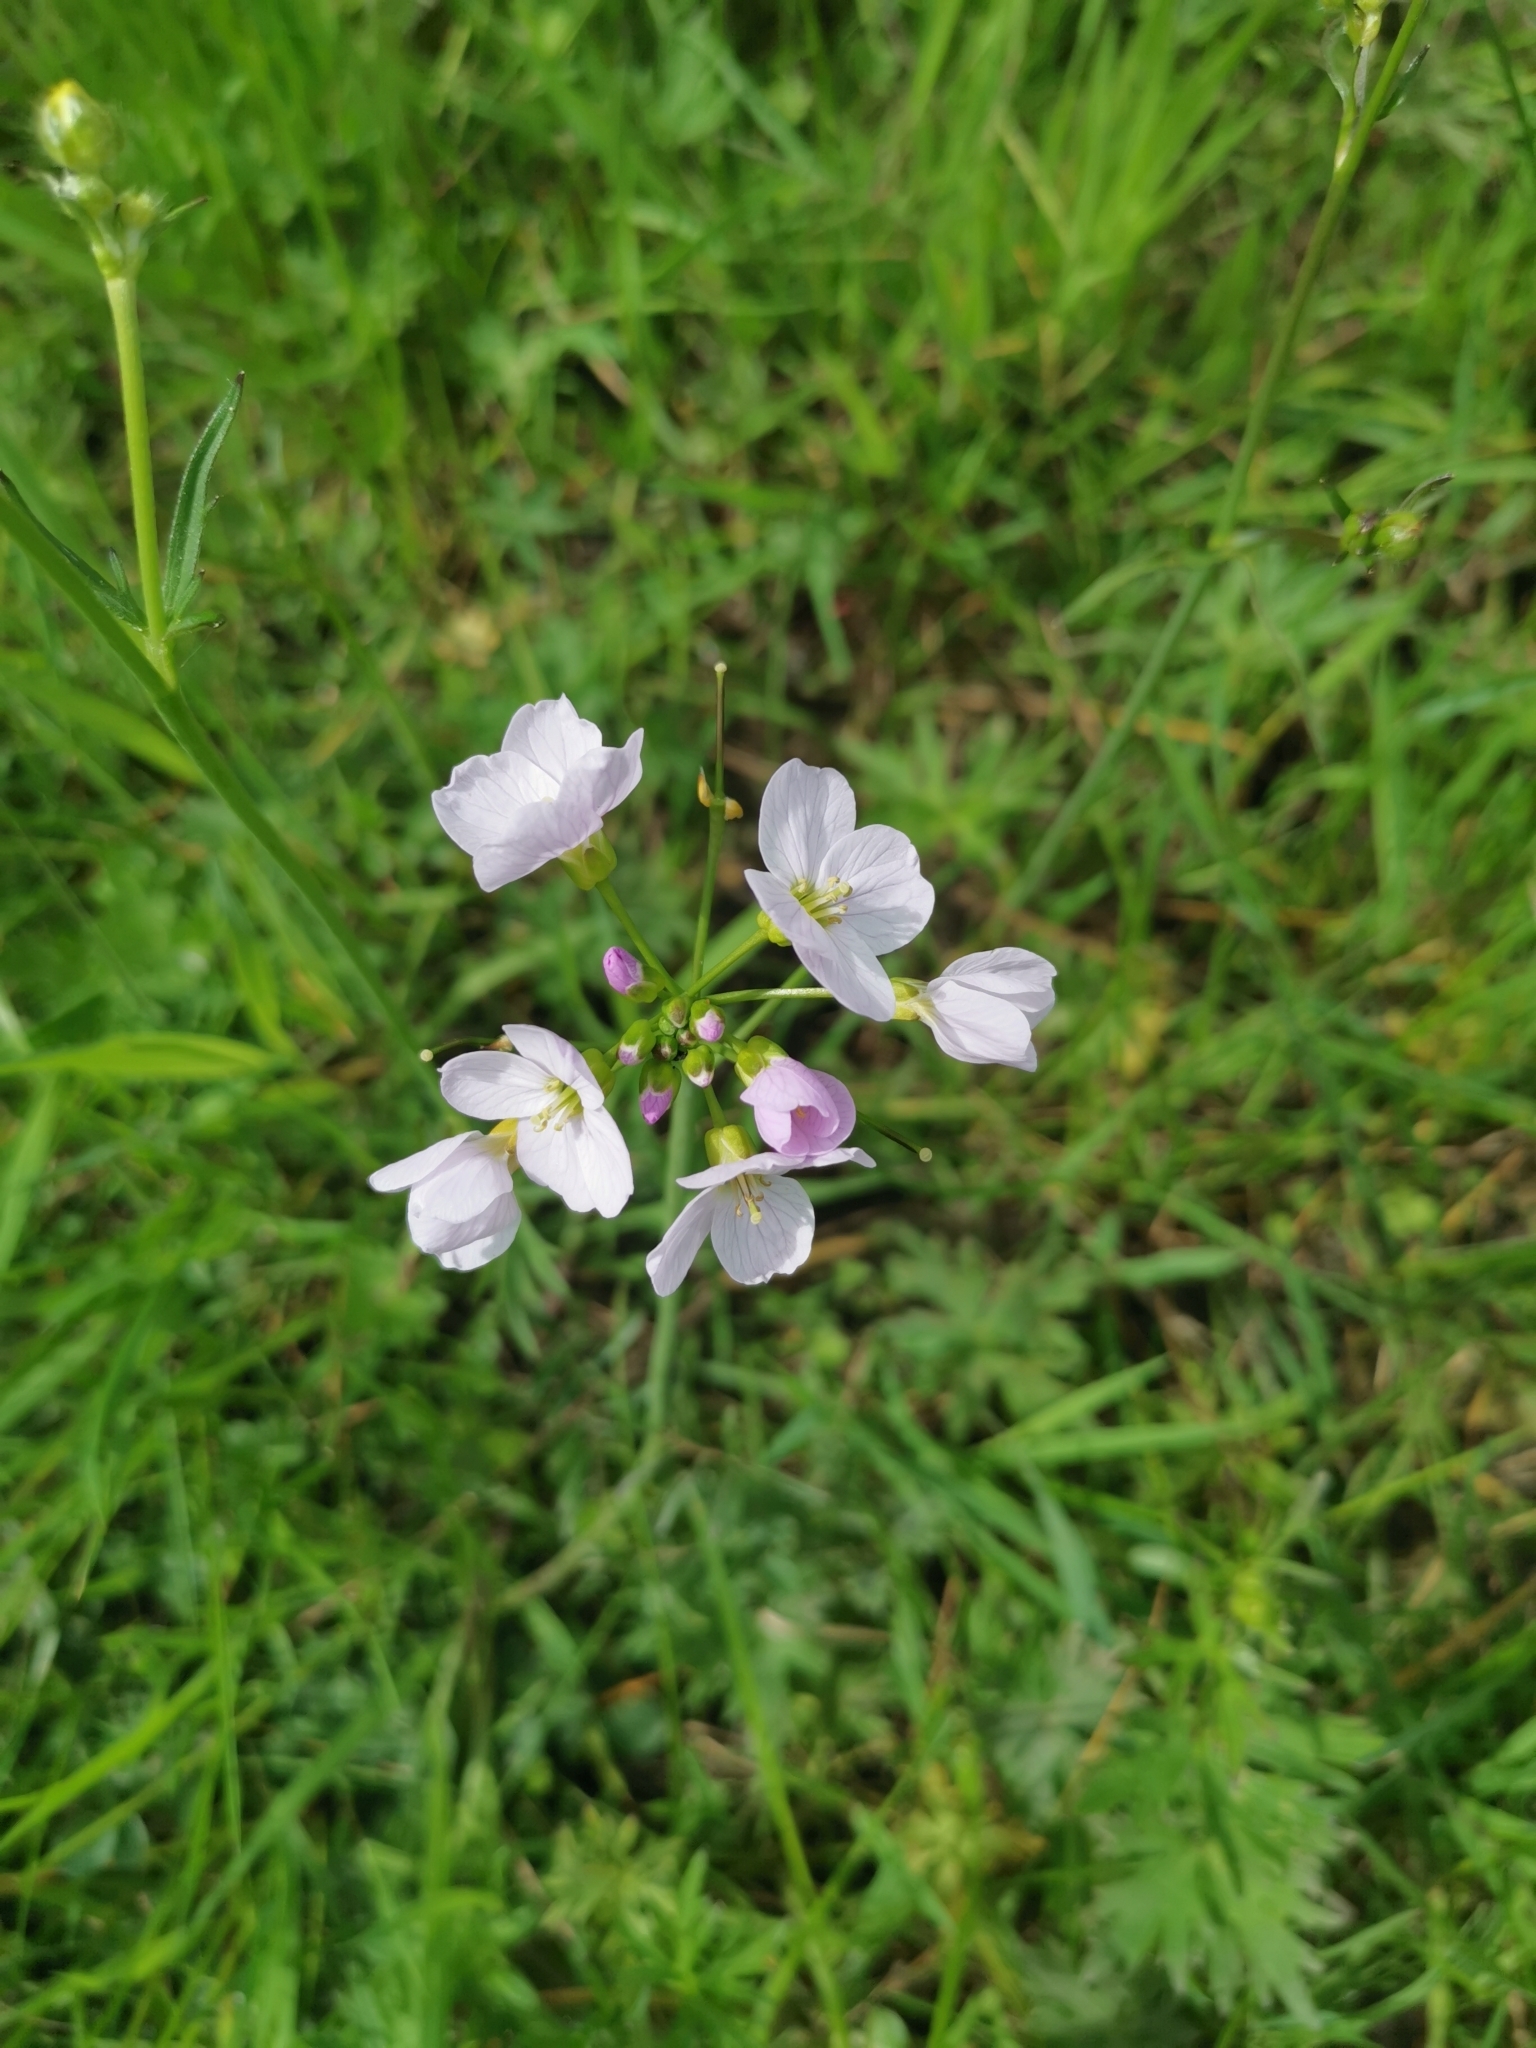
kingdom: Plantae
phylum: Tracheophyta
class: Magnoliopsida
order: Brassicales
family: Brassicaceae
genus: Cardamine
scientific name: Cardamine pratensis
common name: Cuckoo flower
